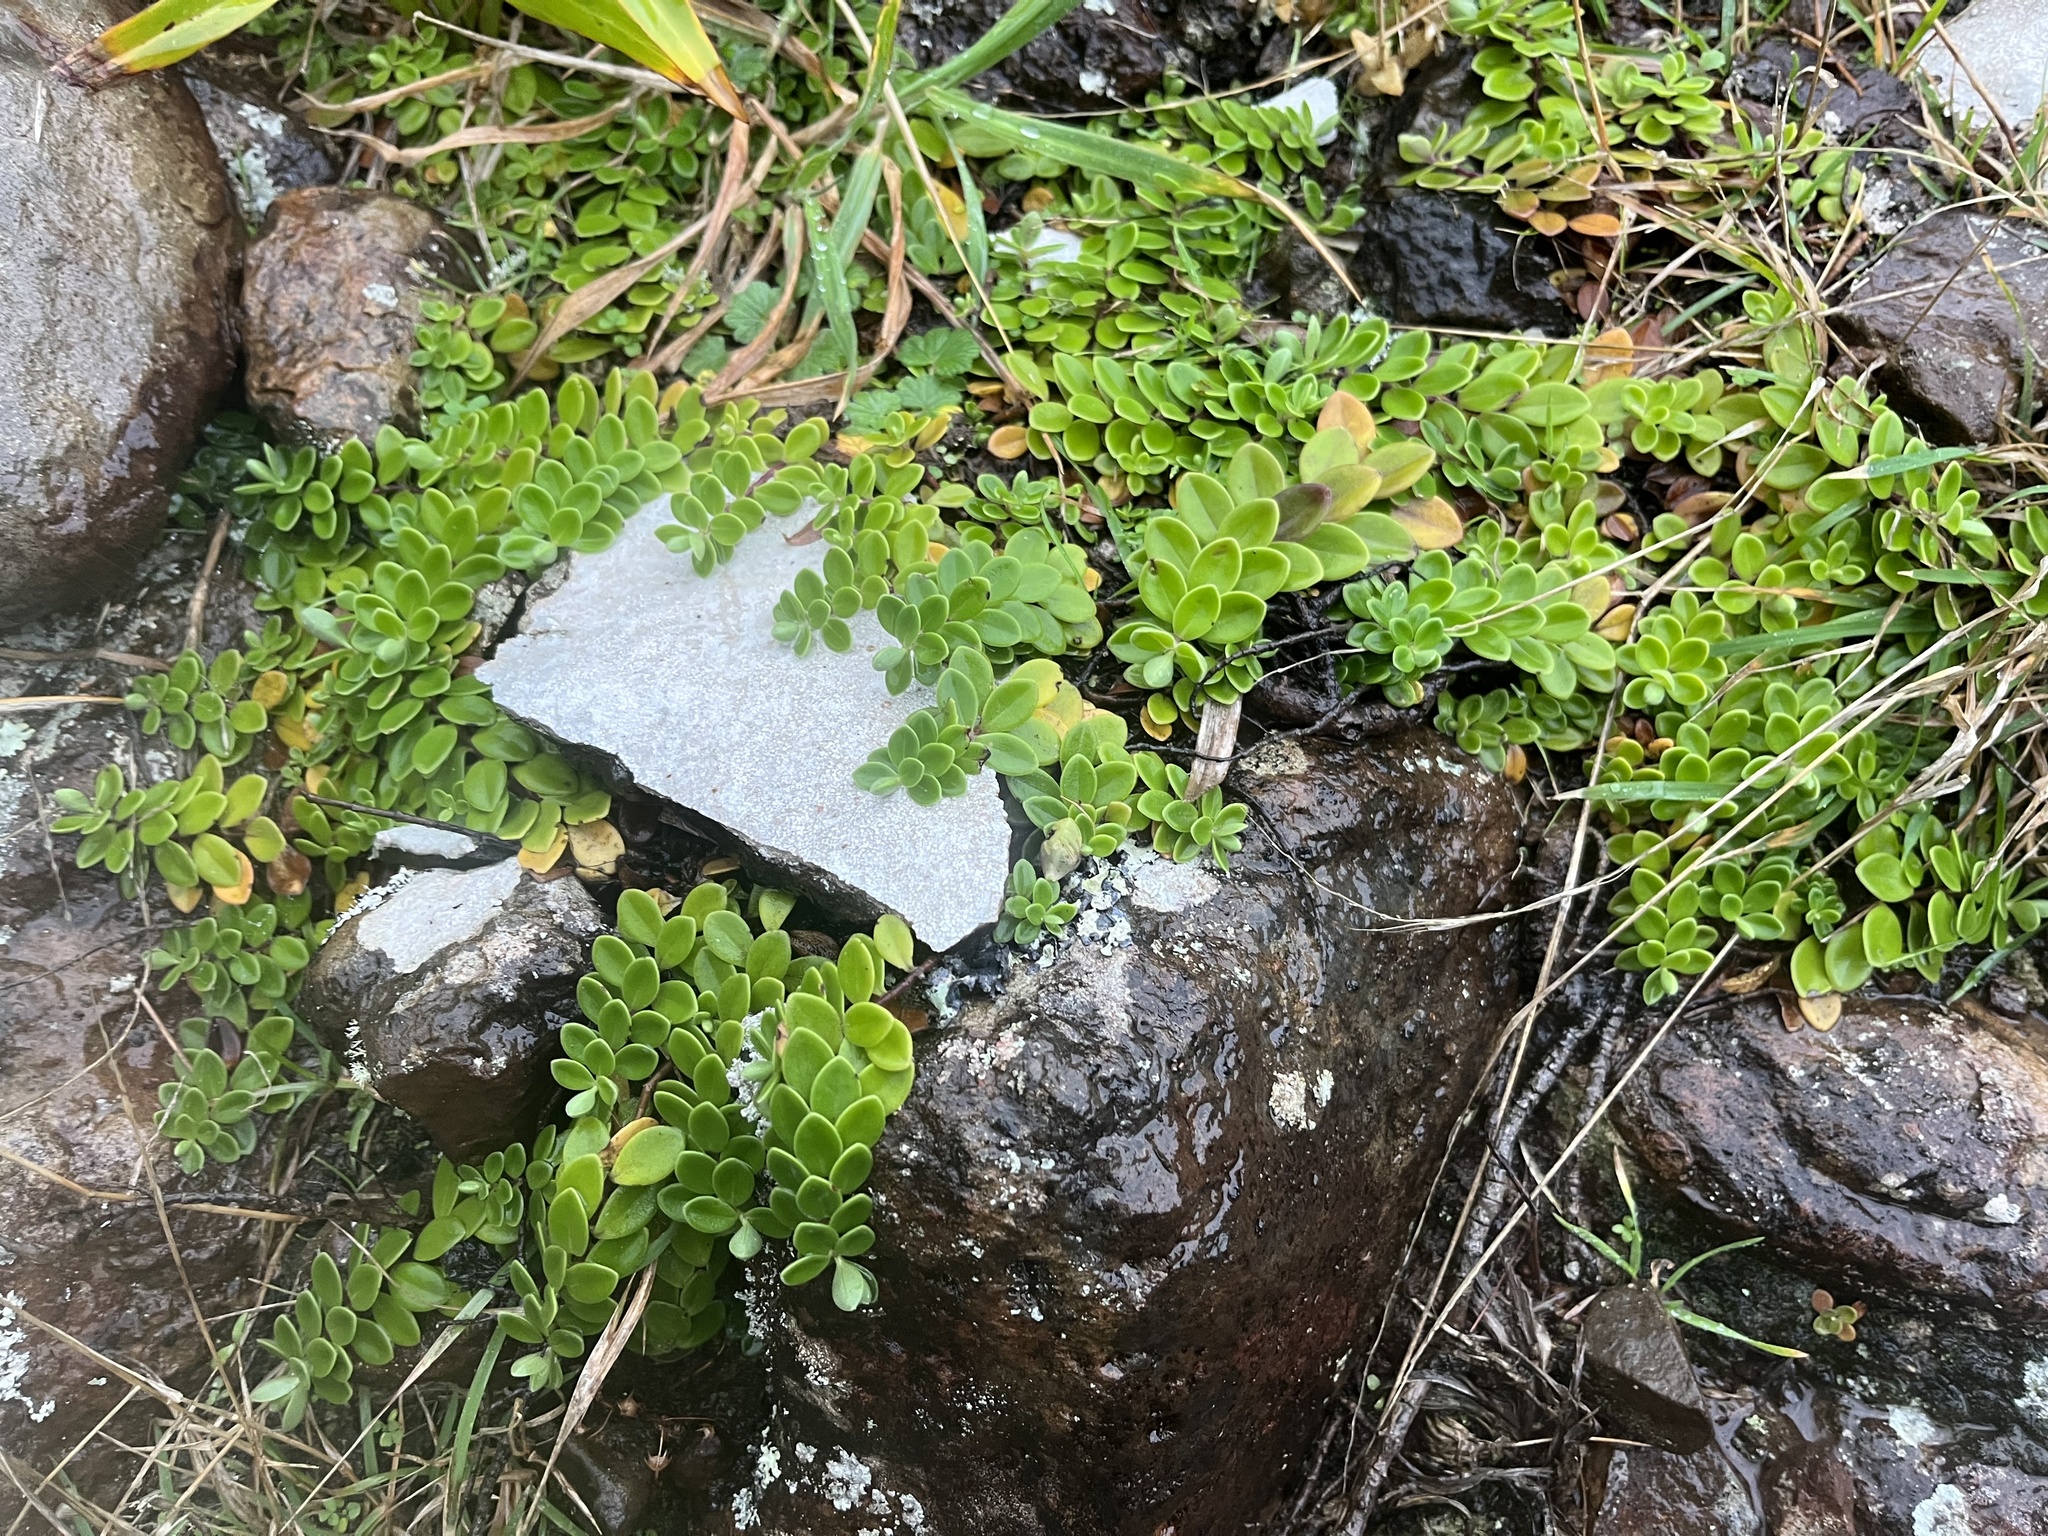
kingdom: Plantae
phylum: Tracheophyta
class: Magnoliopsida
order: Lamiales
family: Plantaginaceae
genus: Veronica
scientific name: Veronica chathamica
